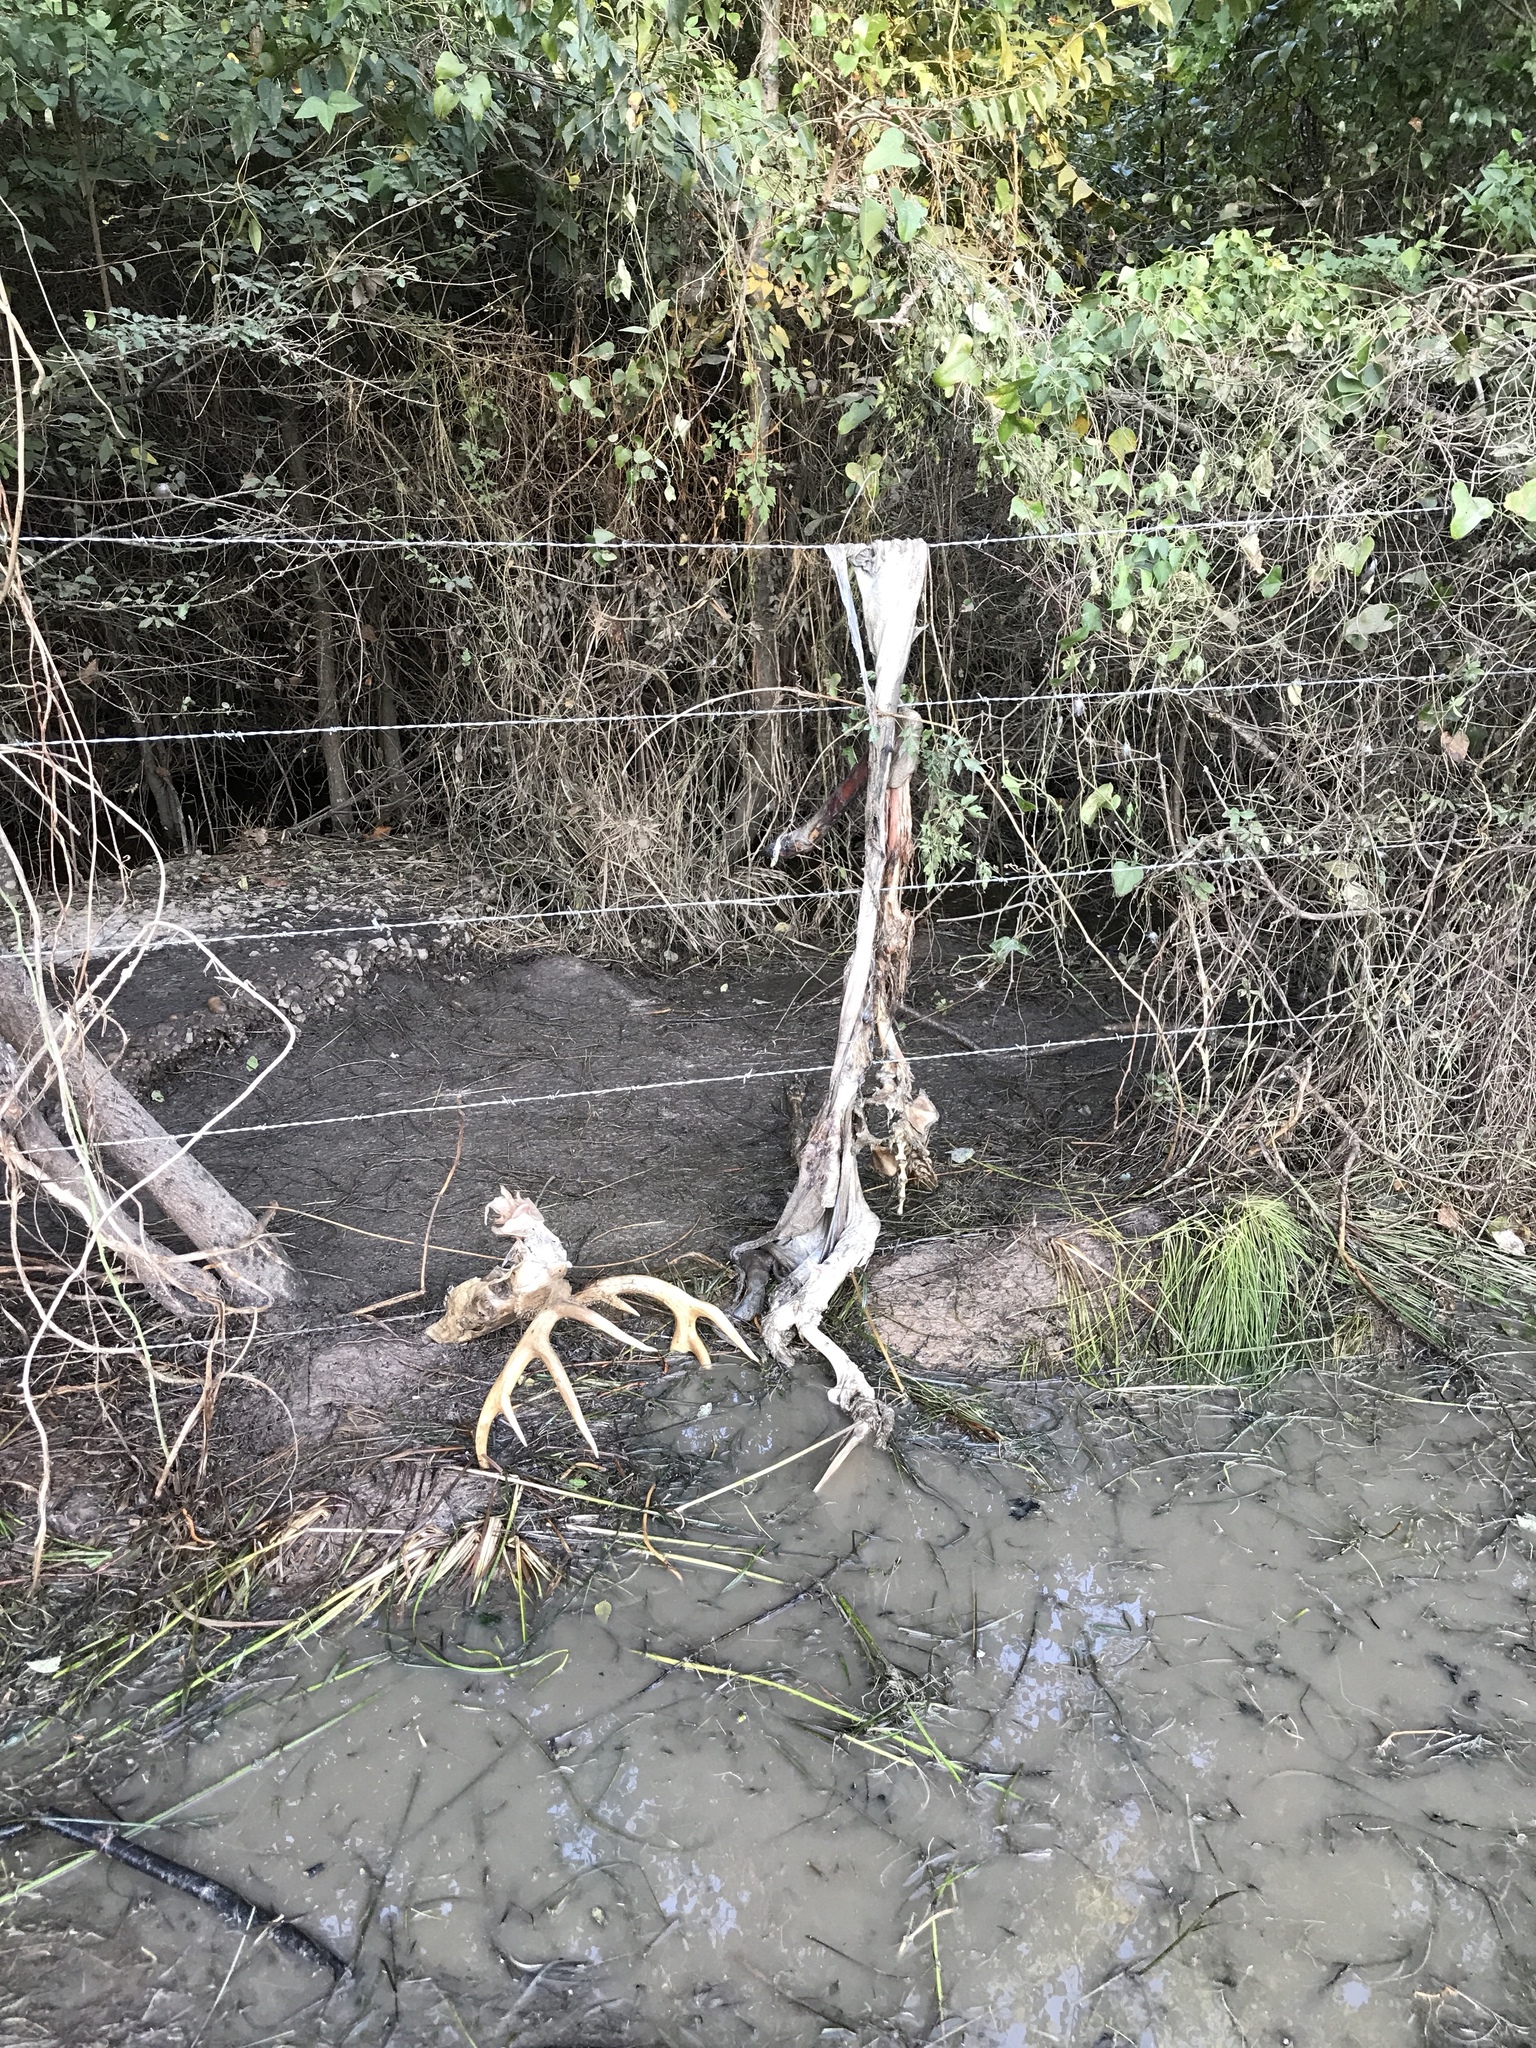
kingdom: Animalia
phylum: Chordata
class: Mammalia
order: Artiodactyla
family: Cervidae
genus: Odocoileus
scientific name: Odocoileus virginianus
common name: White-tailed deer
